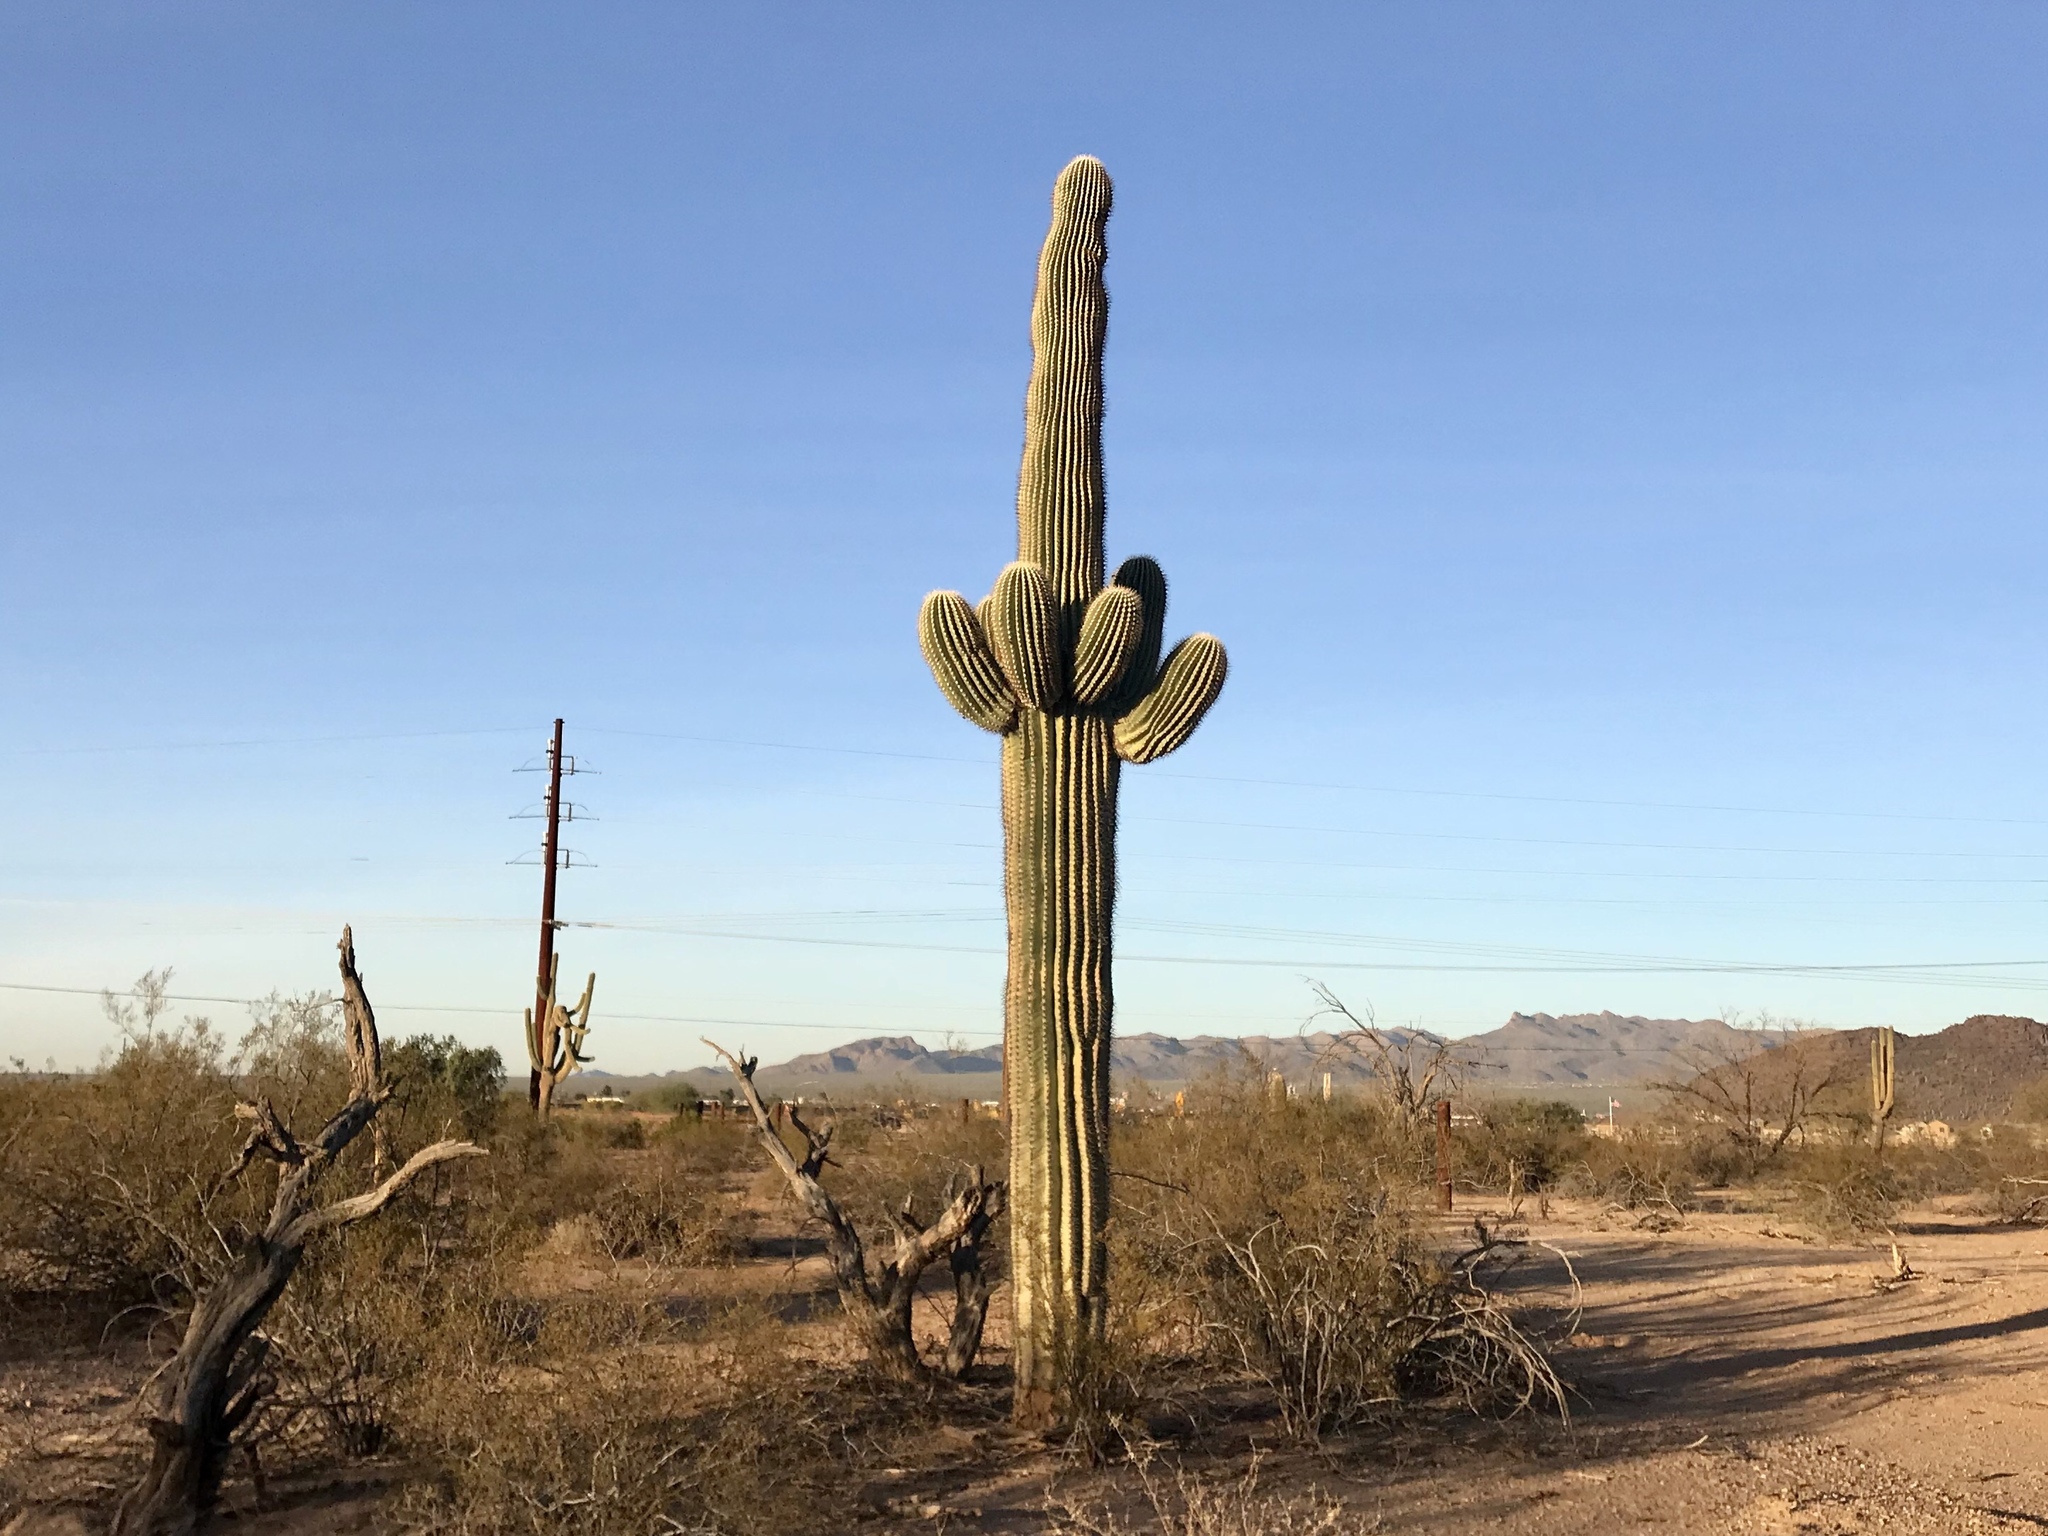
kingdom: Plantae
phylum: Tracheophyta
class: Magnoliopsida
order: Caryophyllales
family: Cactaceae
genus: Carnegiea
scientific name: Carnegiea gigantea
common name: Saguaro
